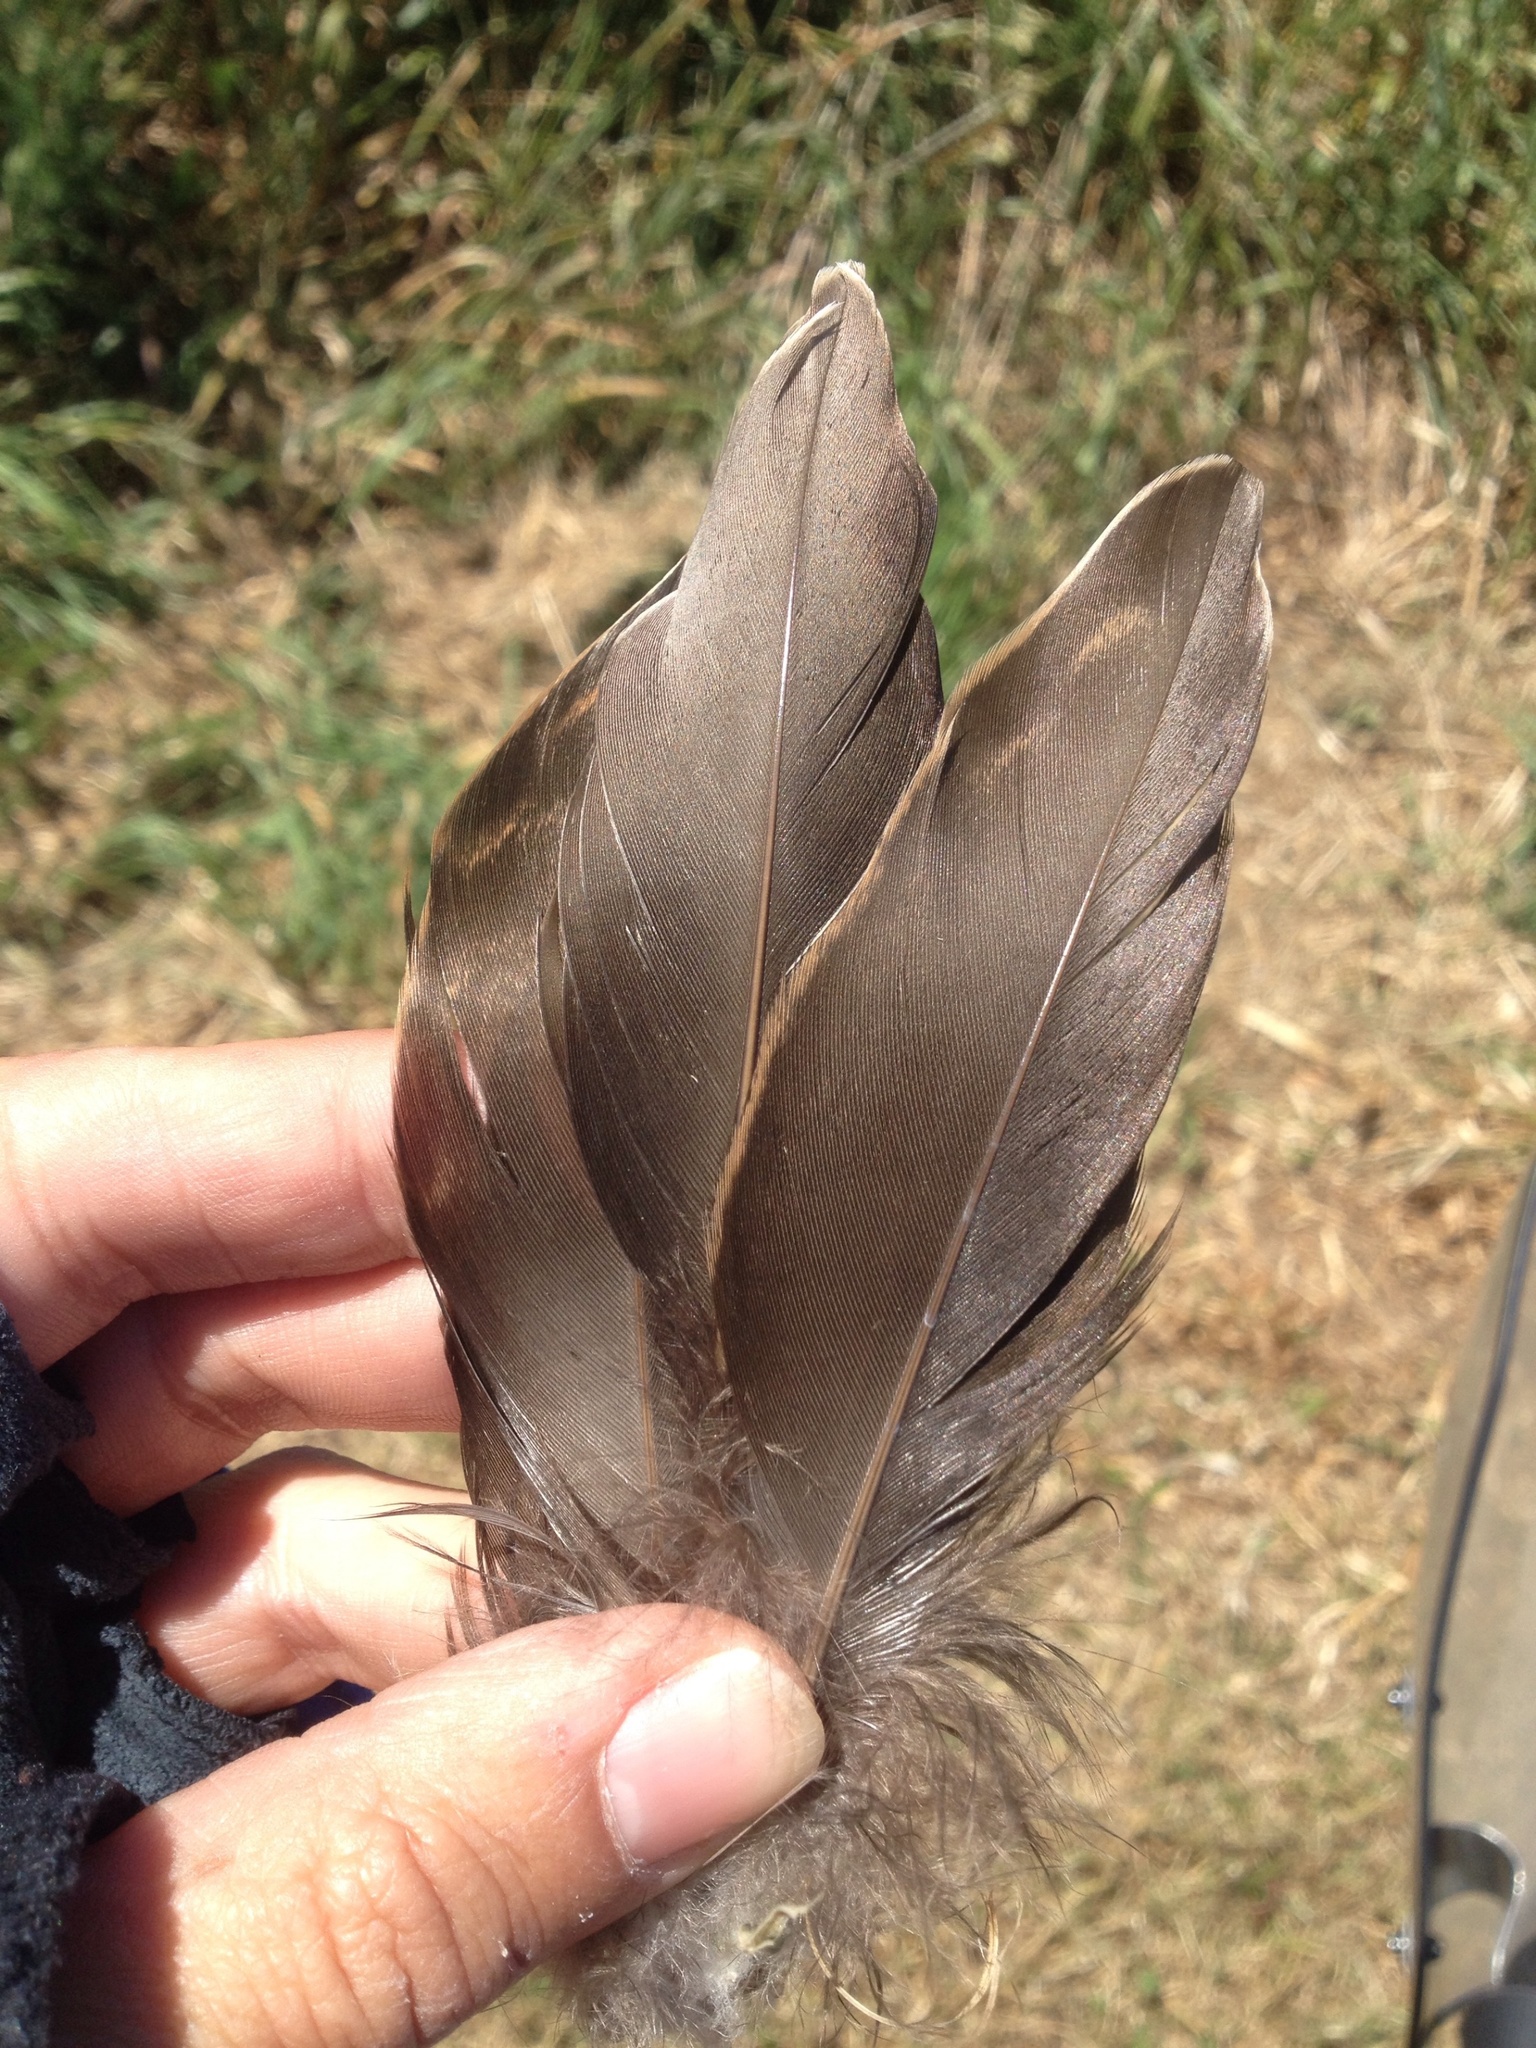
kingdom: Animalia
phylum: Chordata
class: Aves
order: Anseriformes
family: Anatidae
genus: Anas
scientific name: Anas platyrhynchos
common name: Mallard
